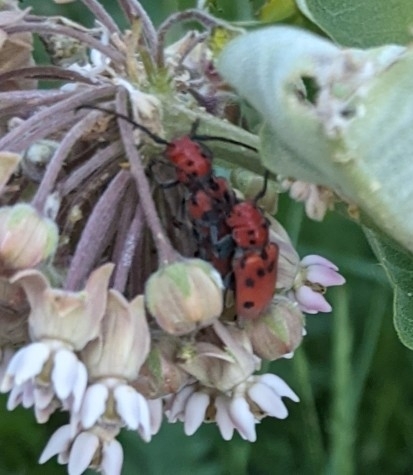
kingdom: Animalia
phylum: Arthropoda
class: Insecta
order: Coleoptera
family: Cerambycidae
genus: Tetraopes
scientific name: Tetraopes tetrophthalmus
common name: Red milkweed beetle
